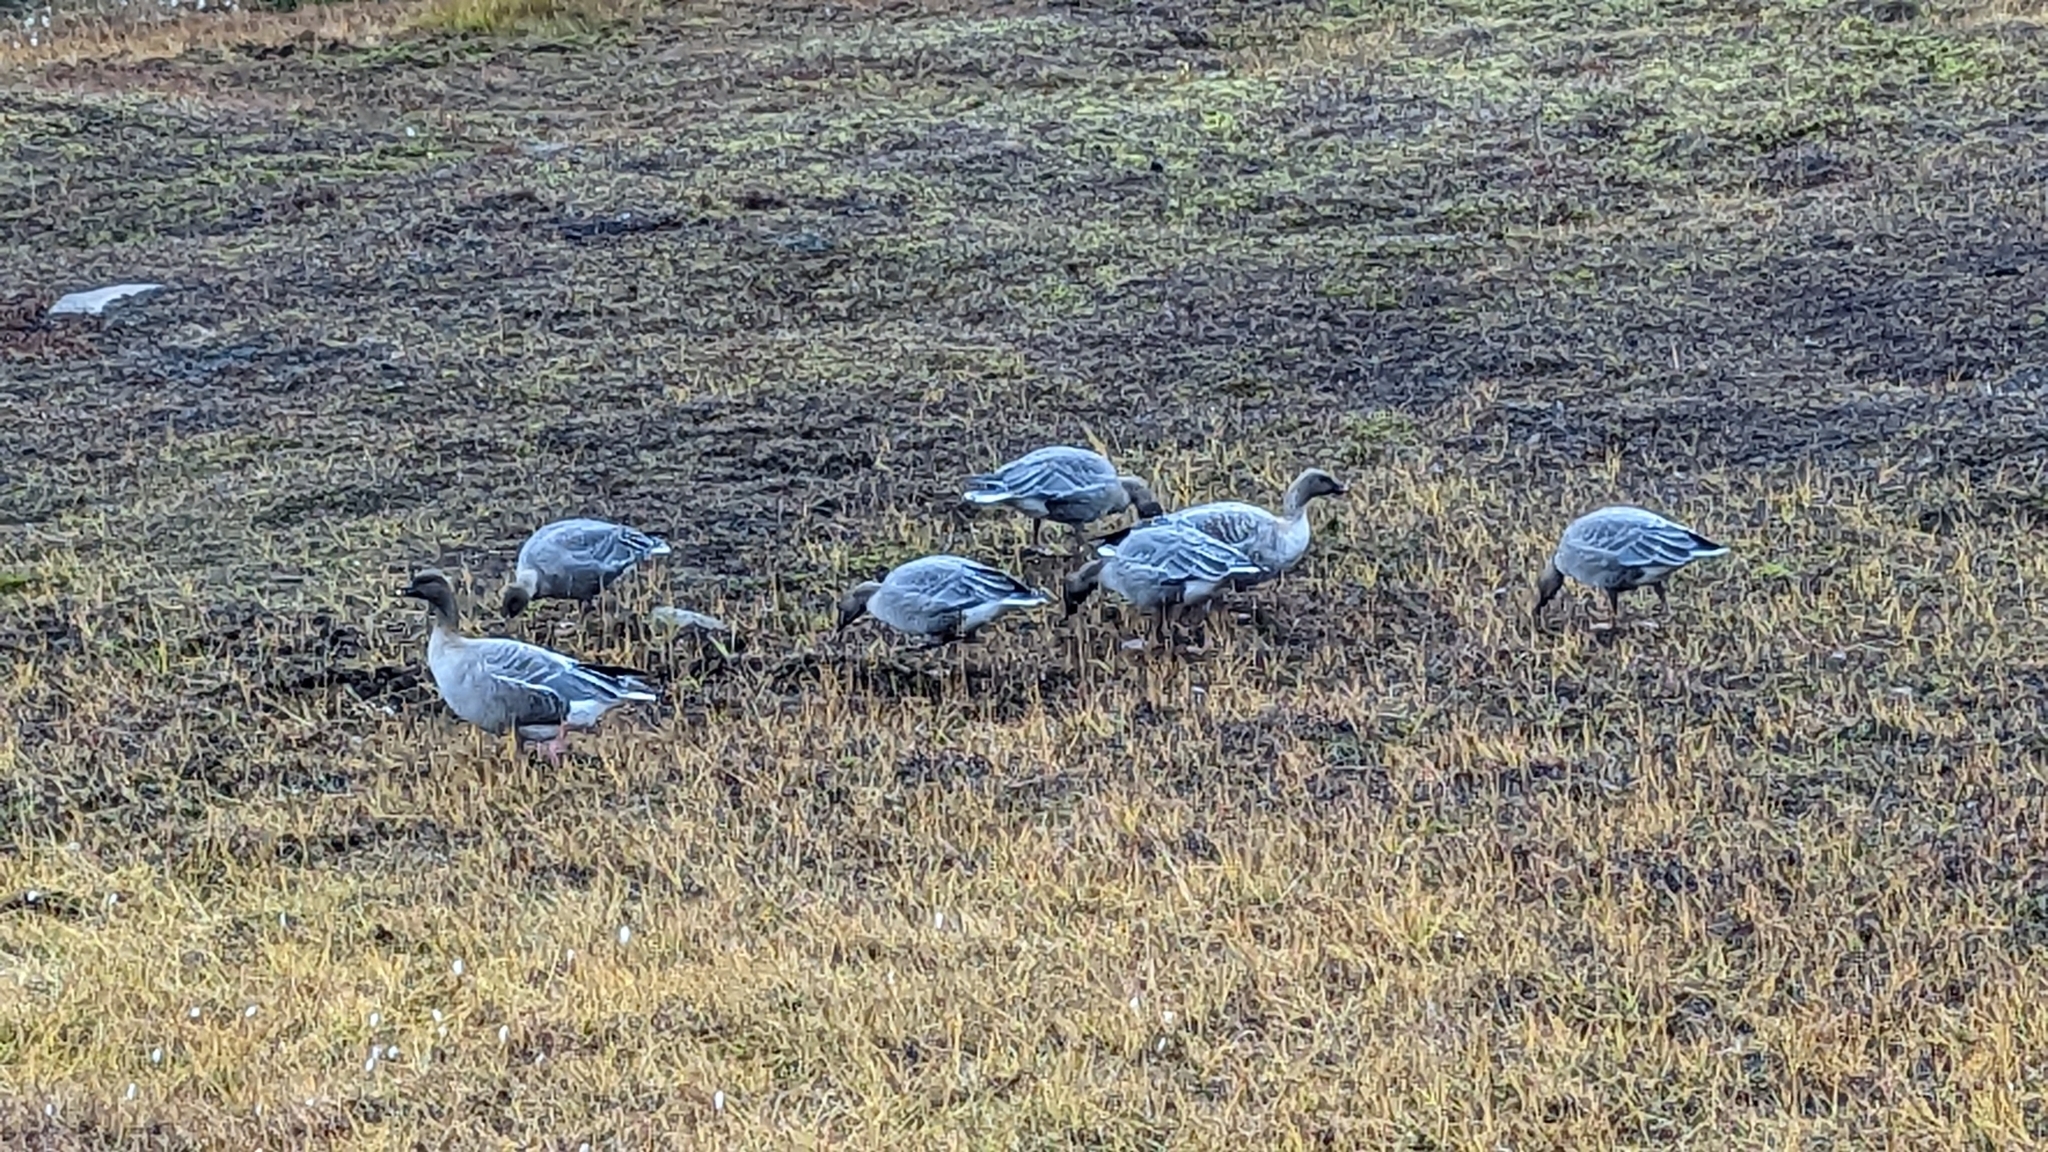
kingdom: Animalia
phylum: Chordata
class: Aves
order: Anseriformes
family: Anatidae
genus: Anser
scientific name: Anser brachyrhynchus
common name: Pink-footed goose
